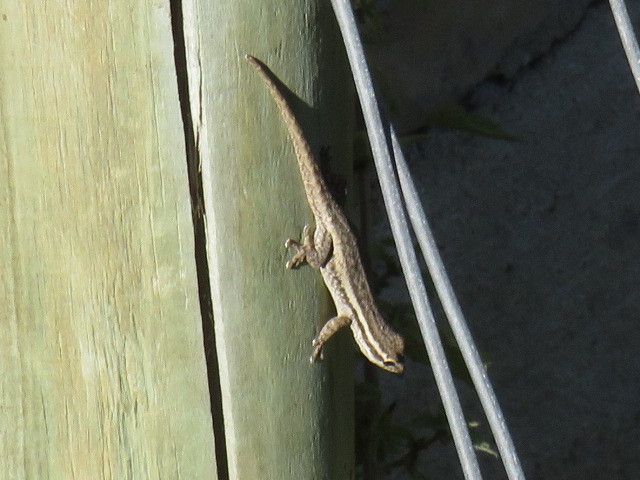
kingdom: Animalia
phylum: Chordata
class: Squamata
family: Gekkonidae
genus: Lygodactylus
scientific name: Lygodactylus capensis
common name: Cape dwarf gecko
